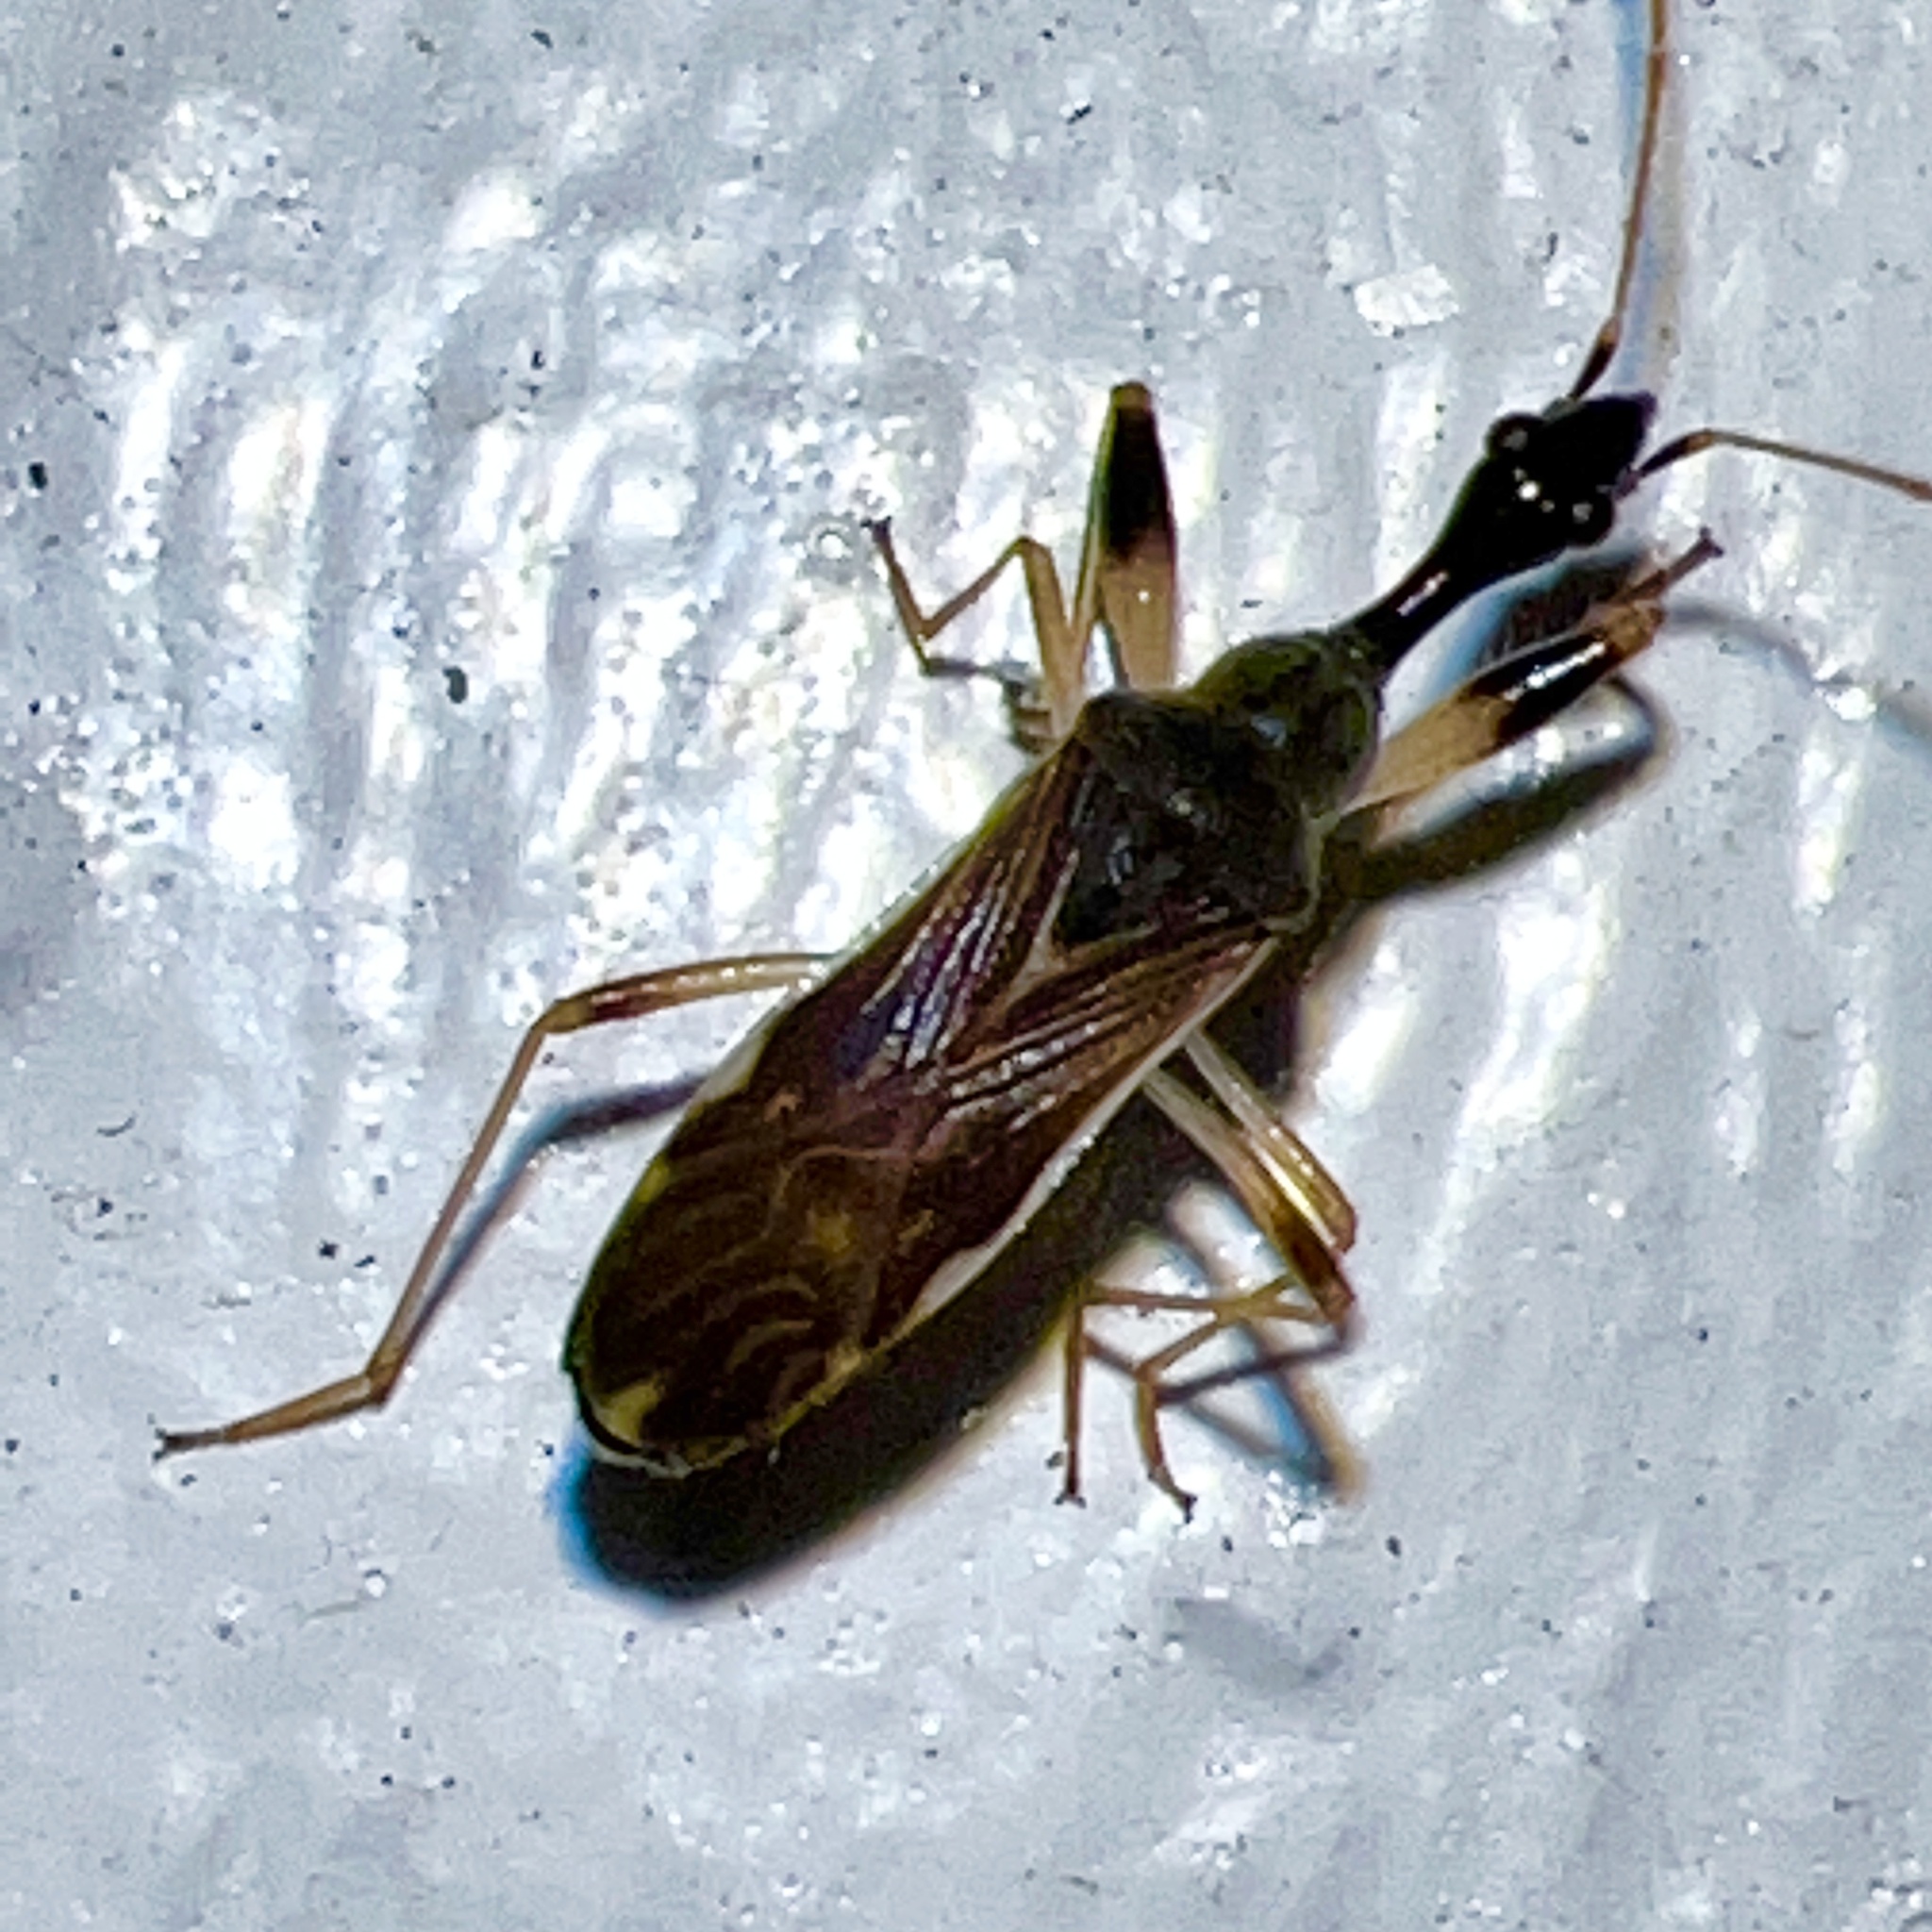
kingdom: Animalia
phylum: Arthropoda
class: Insecta
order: Hemiptera
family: Rhyparochromidae
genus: Myodocha
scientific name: Myodocha serripes
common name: Long-necked seed bug
